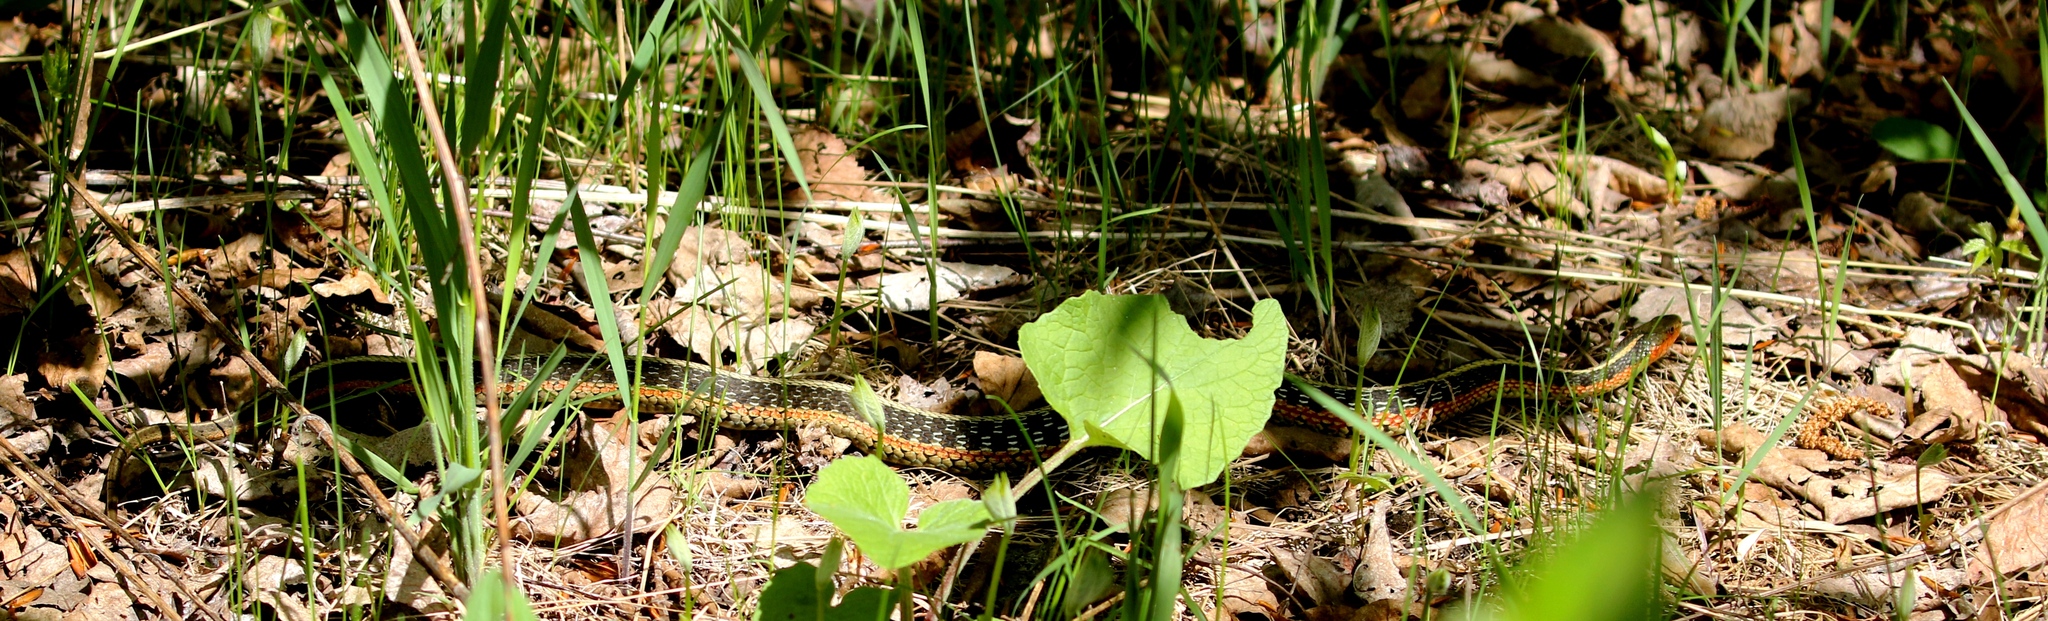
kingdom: Animalia
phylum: Chordata
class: Squamata
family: Colubridae
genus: Thamnophis
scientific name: Thamnophis sirtalis
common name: Common garter snake
